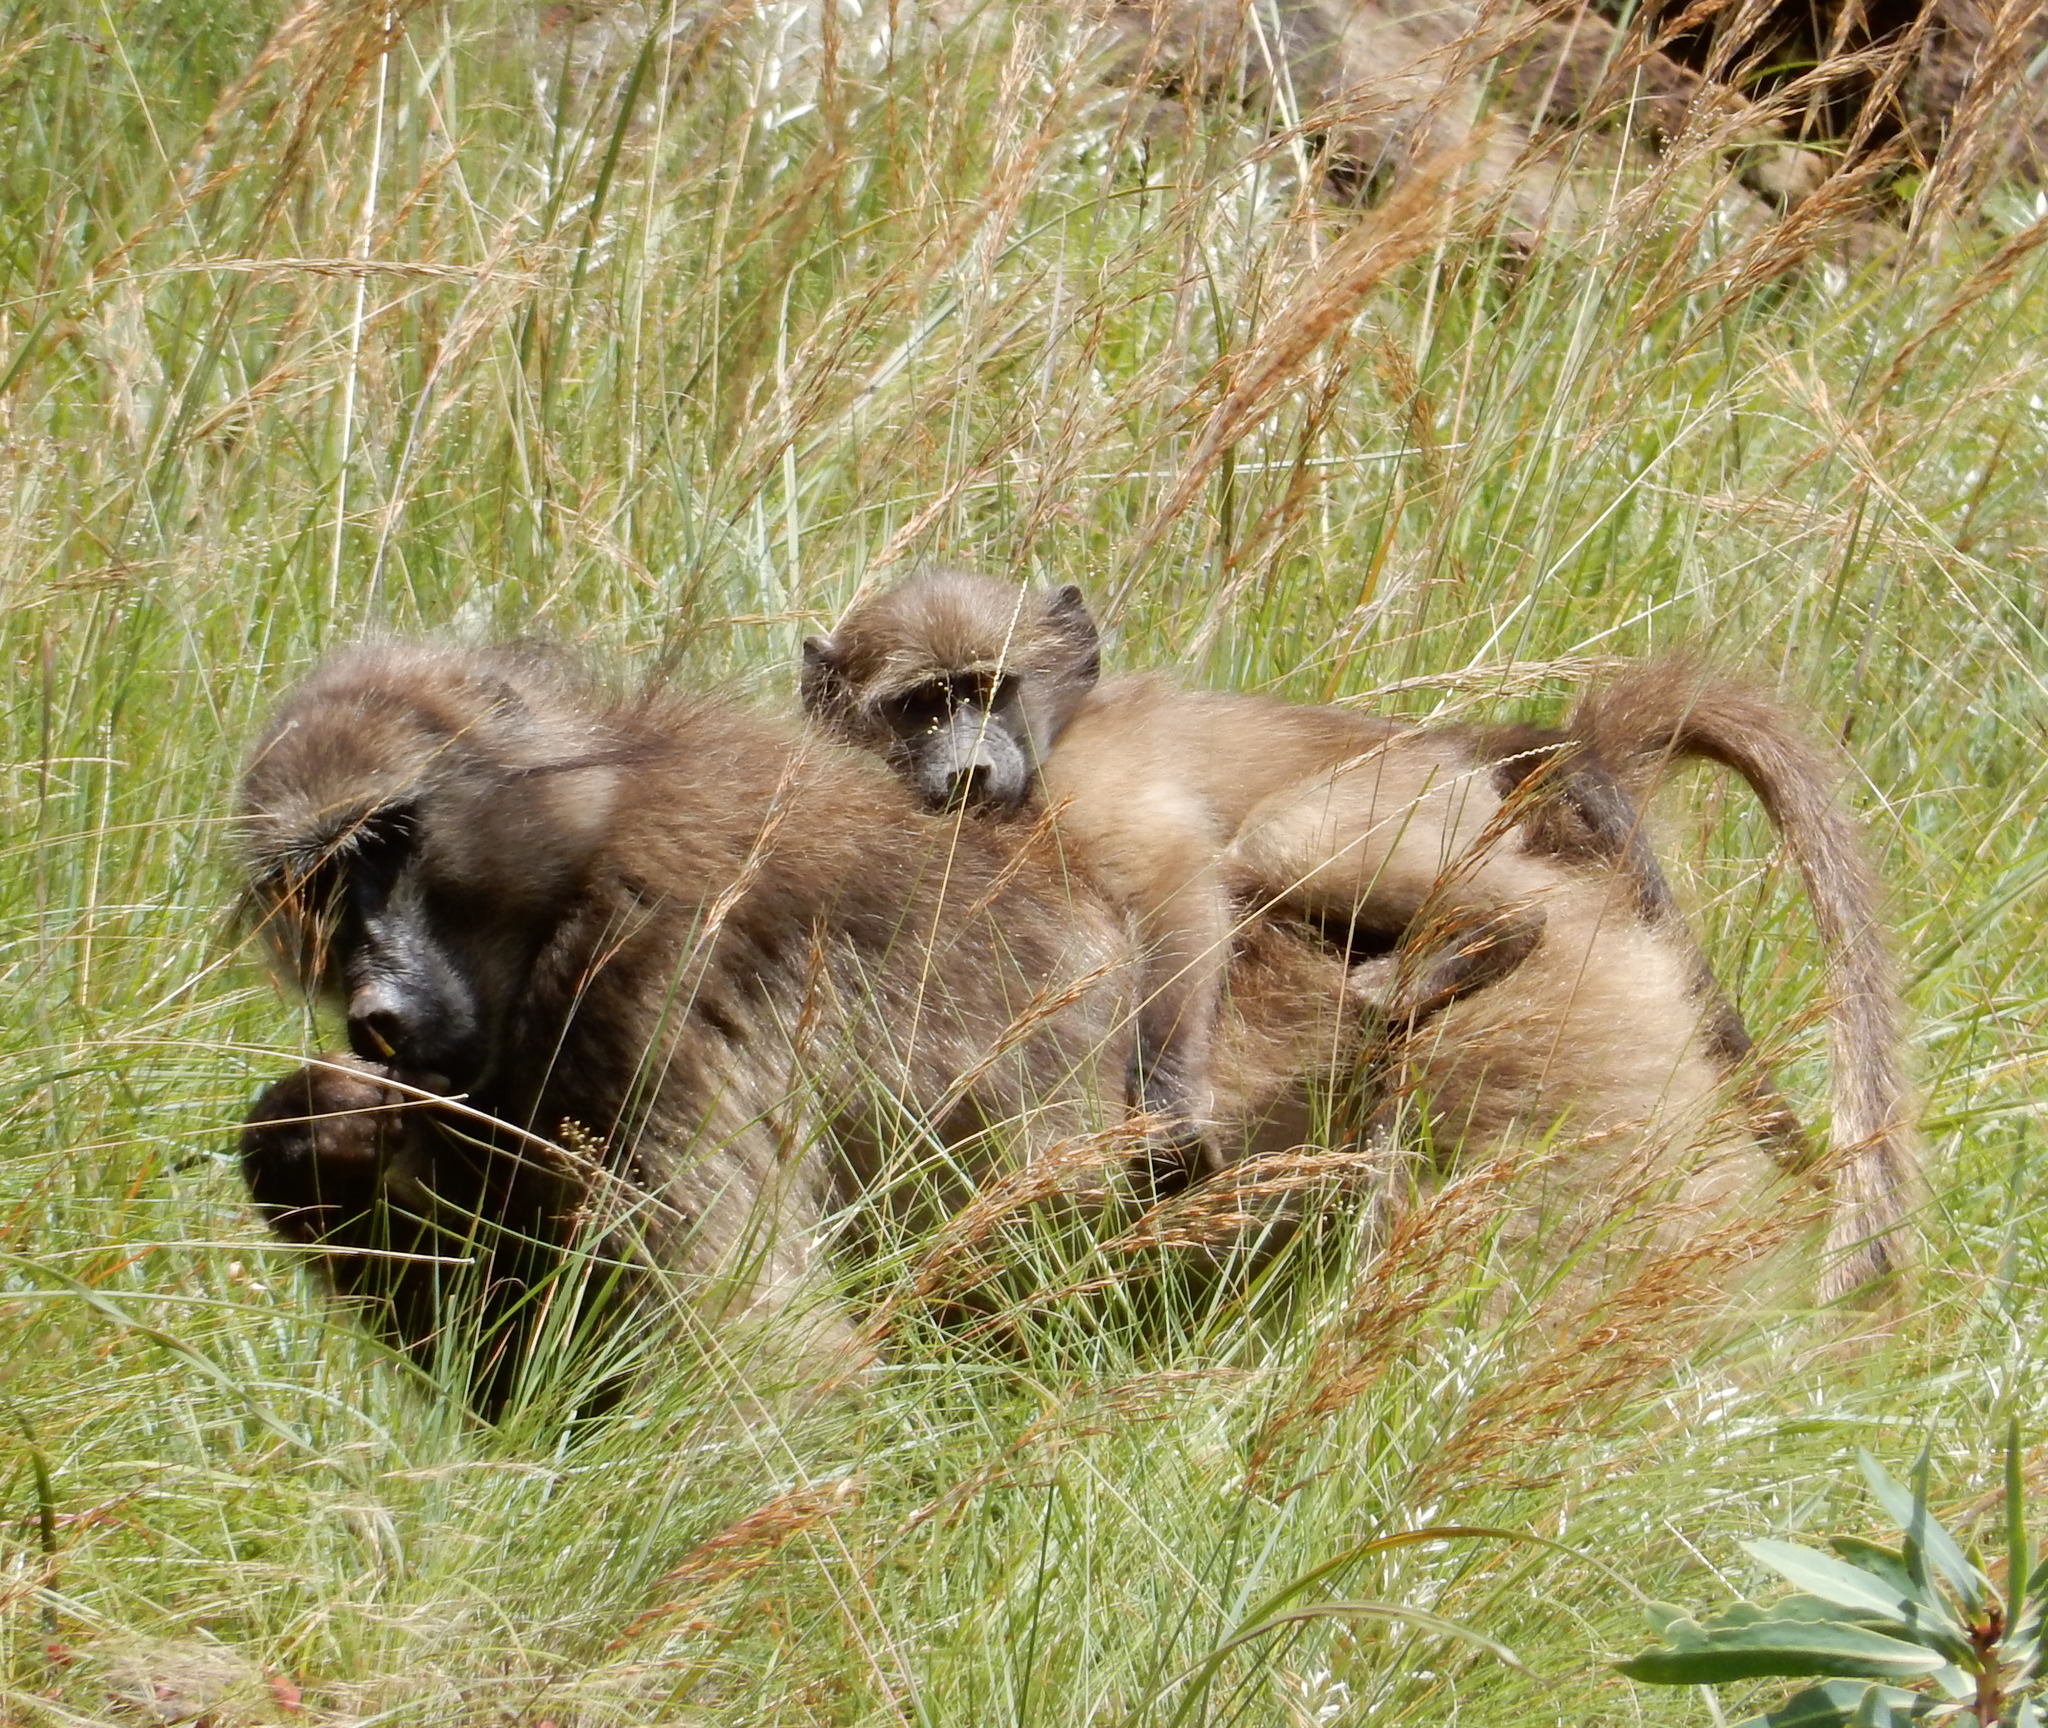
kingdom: Animalia
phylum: Chordata
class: Mammalia
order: Primates
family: Cercopithecidae
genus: Papio
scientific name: Papio ursinus
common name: Chacma baboon
